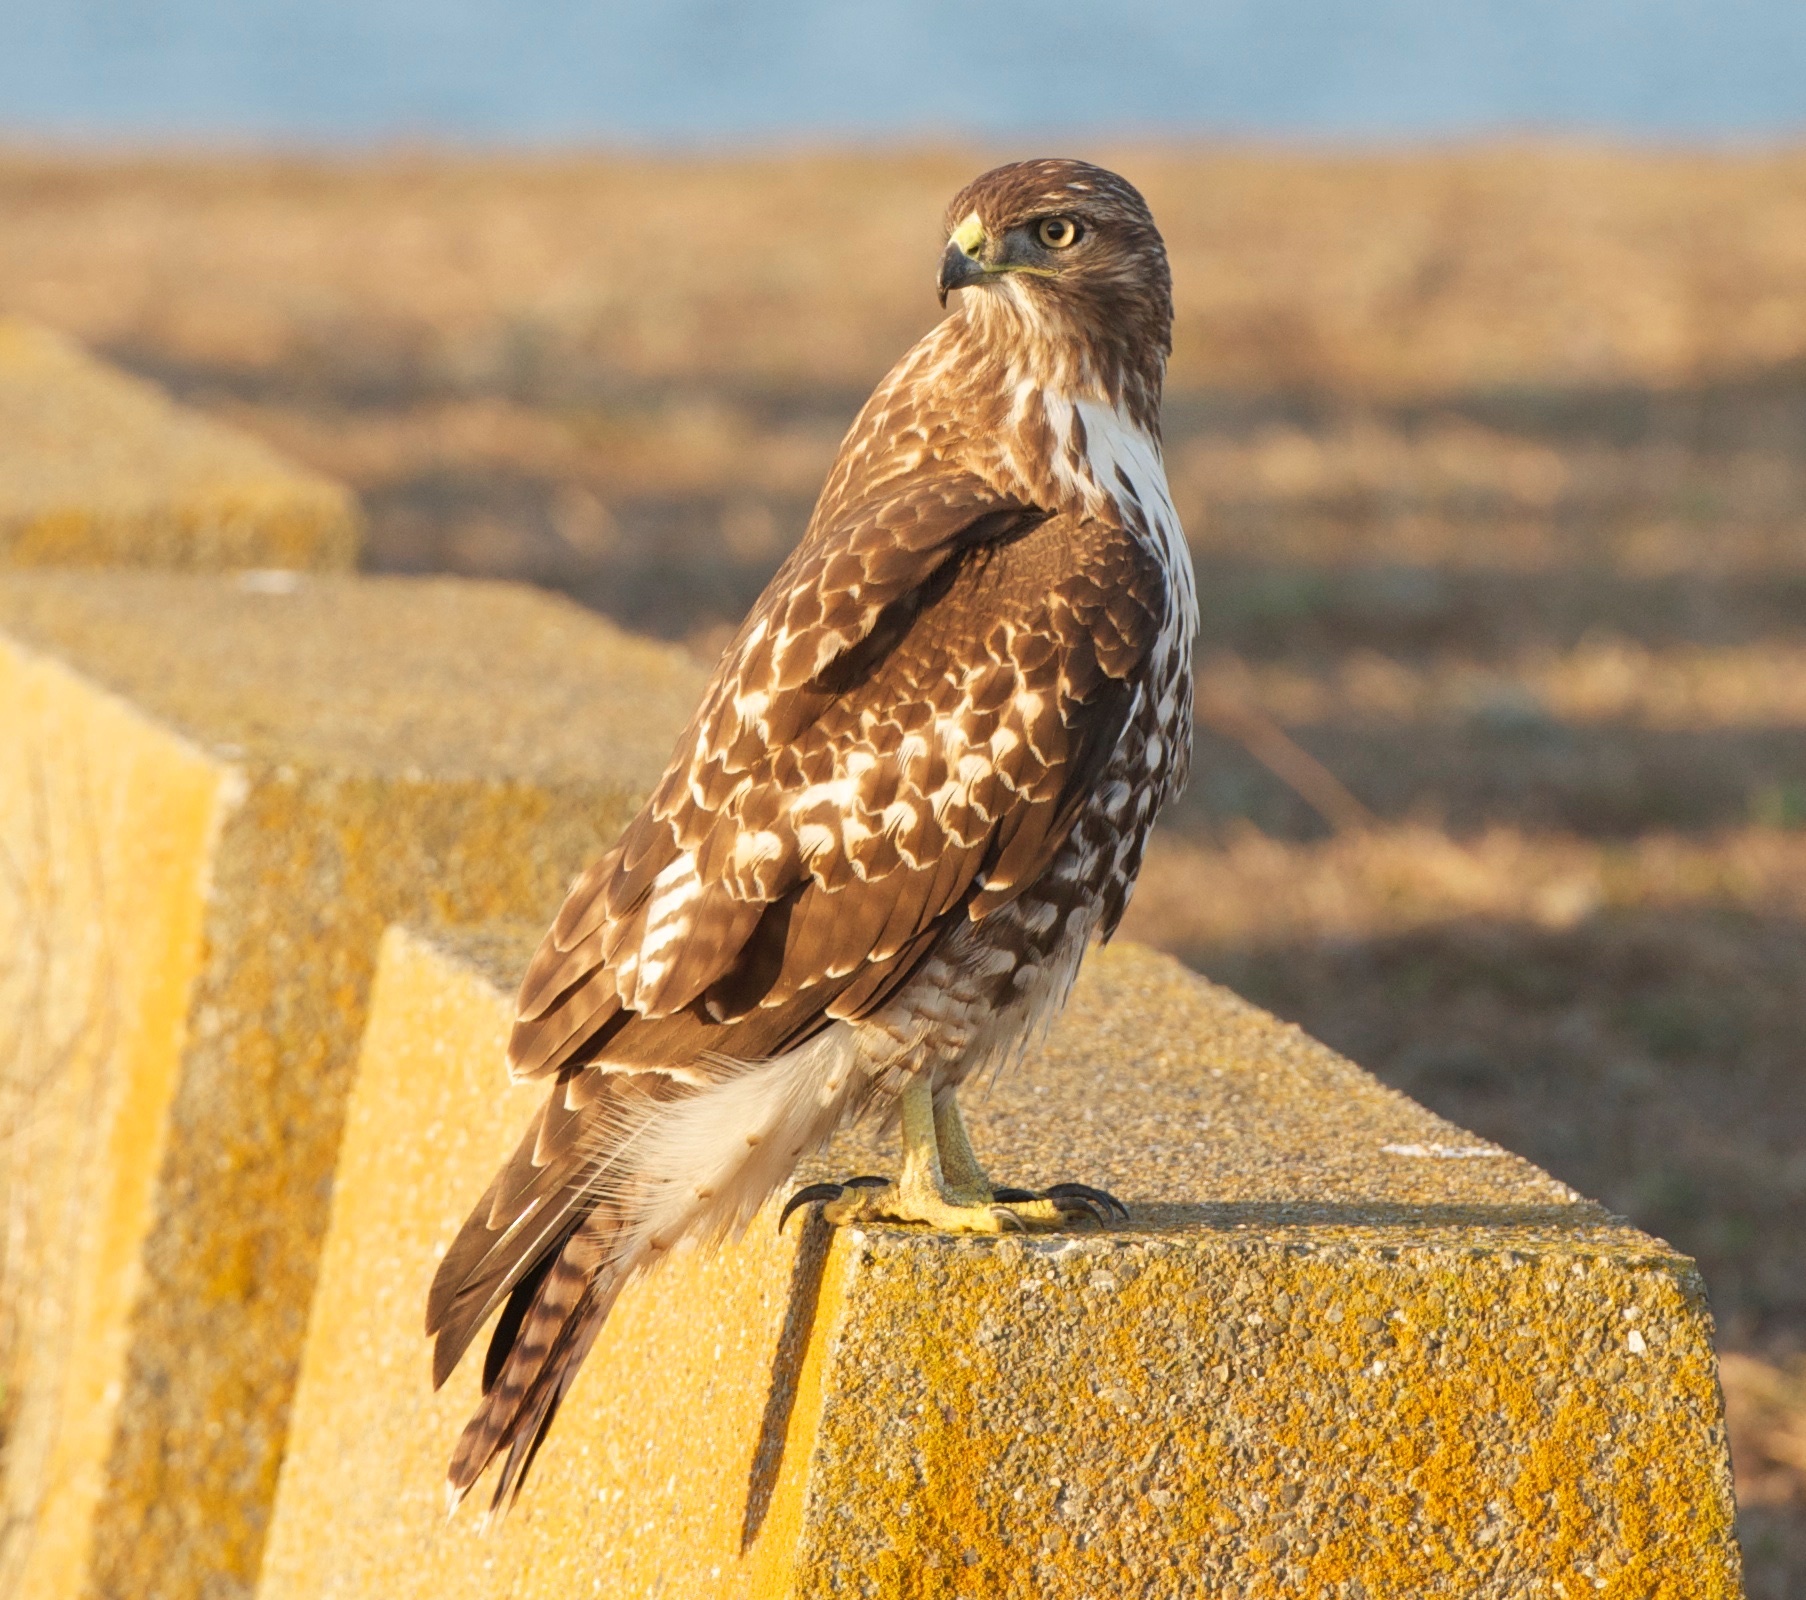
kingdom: Animalia
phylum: Chordata
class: Aves
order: Accipitriformes
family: Accipitridae
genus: Buteo
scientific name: Buteo jamaicensis
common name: Red-tailed hawk
